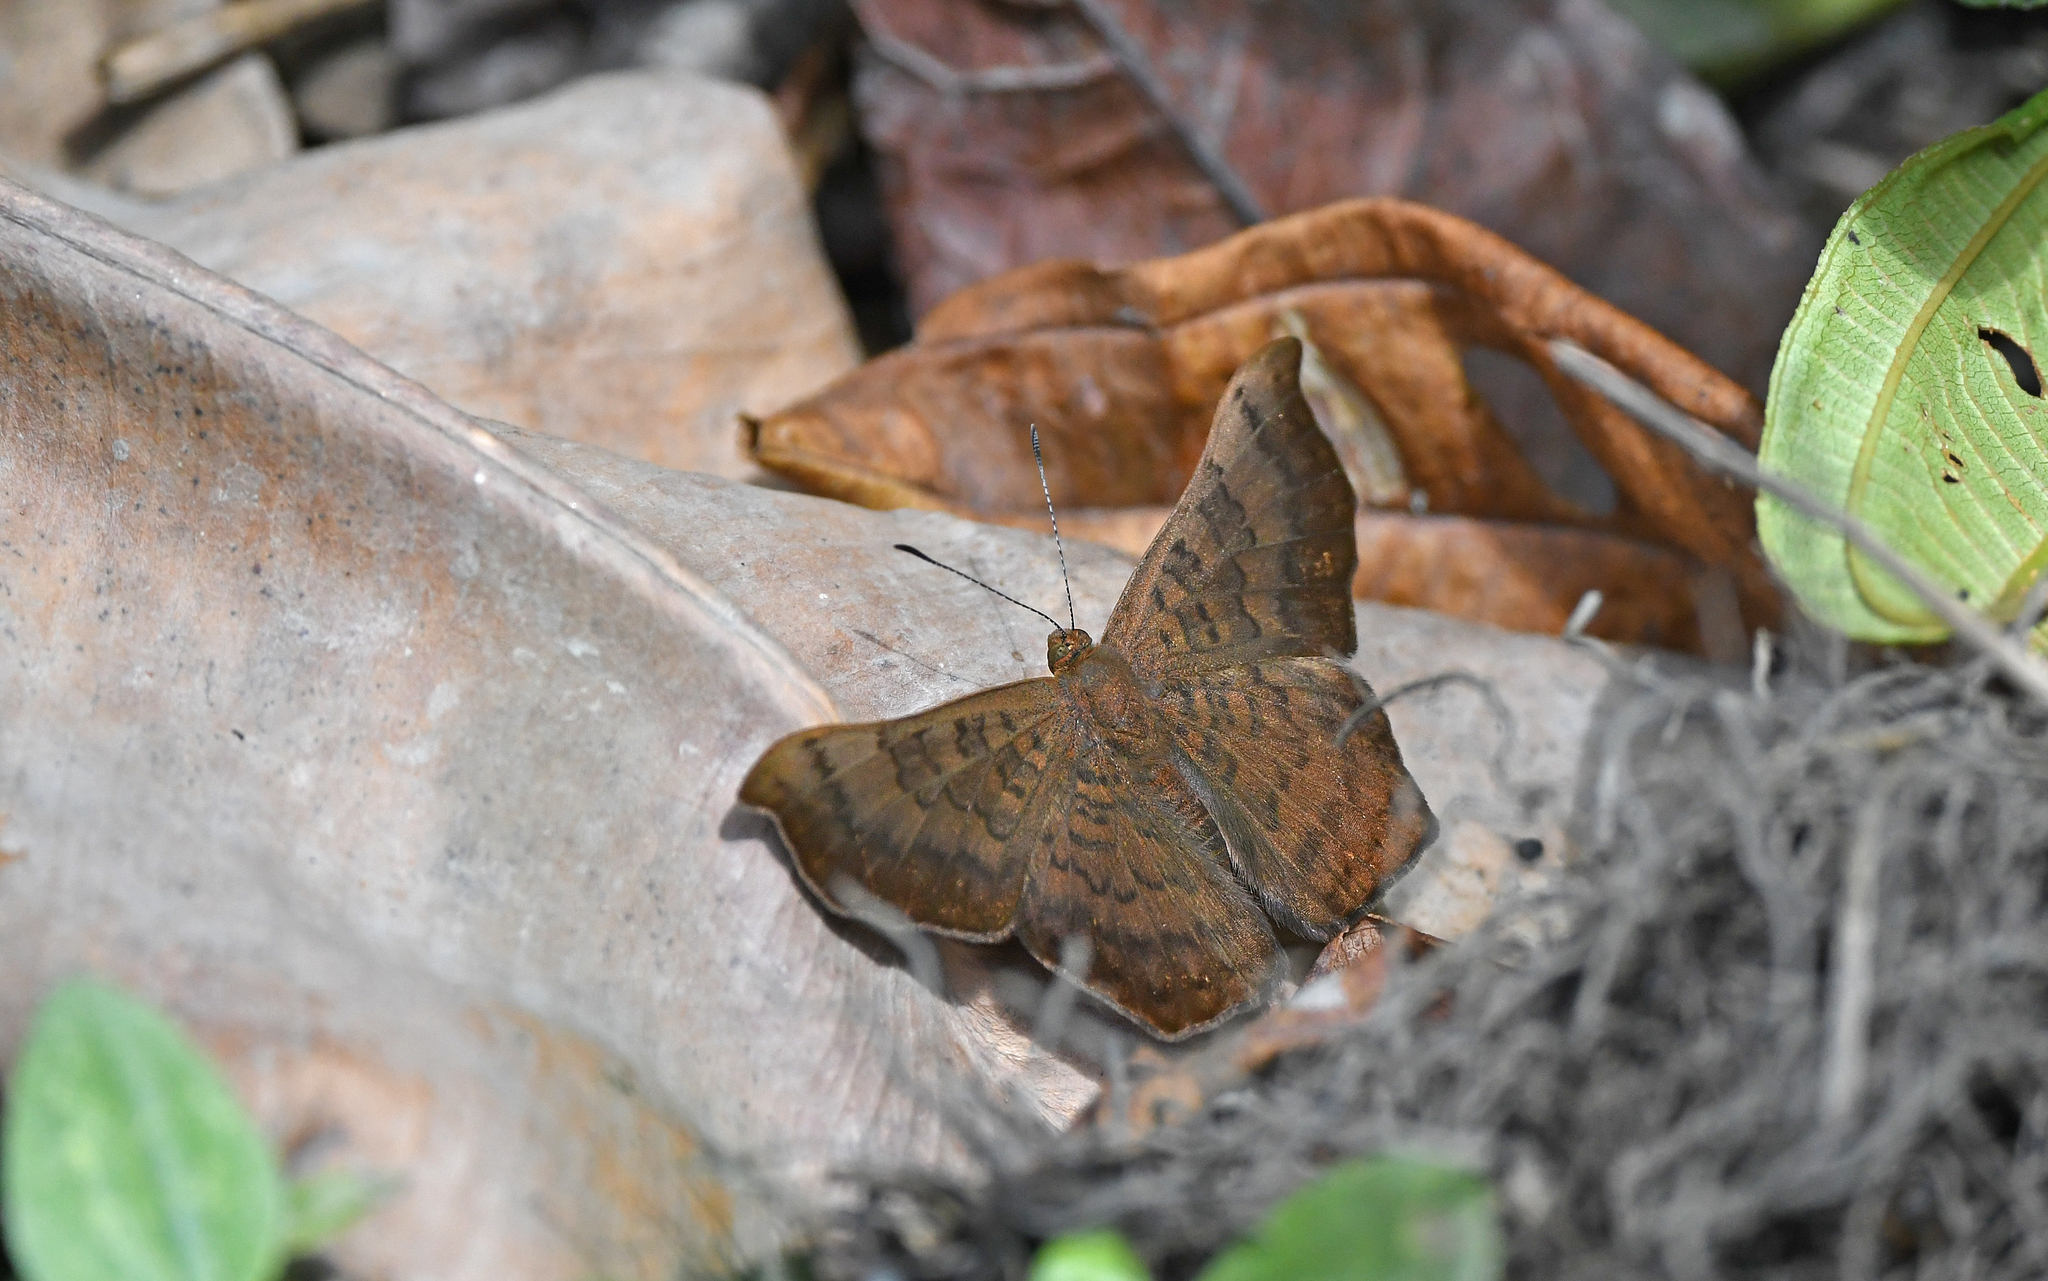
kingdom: Animalia
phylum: Arthropoda
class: Insecta
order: Lepidoptera
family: Lycaenidae
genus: Emesis
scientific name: Emesis angularis
